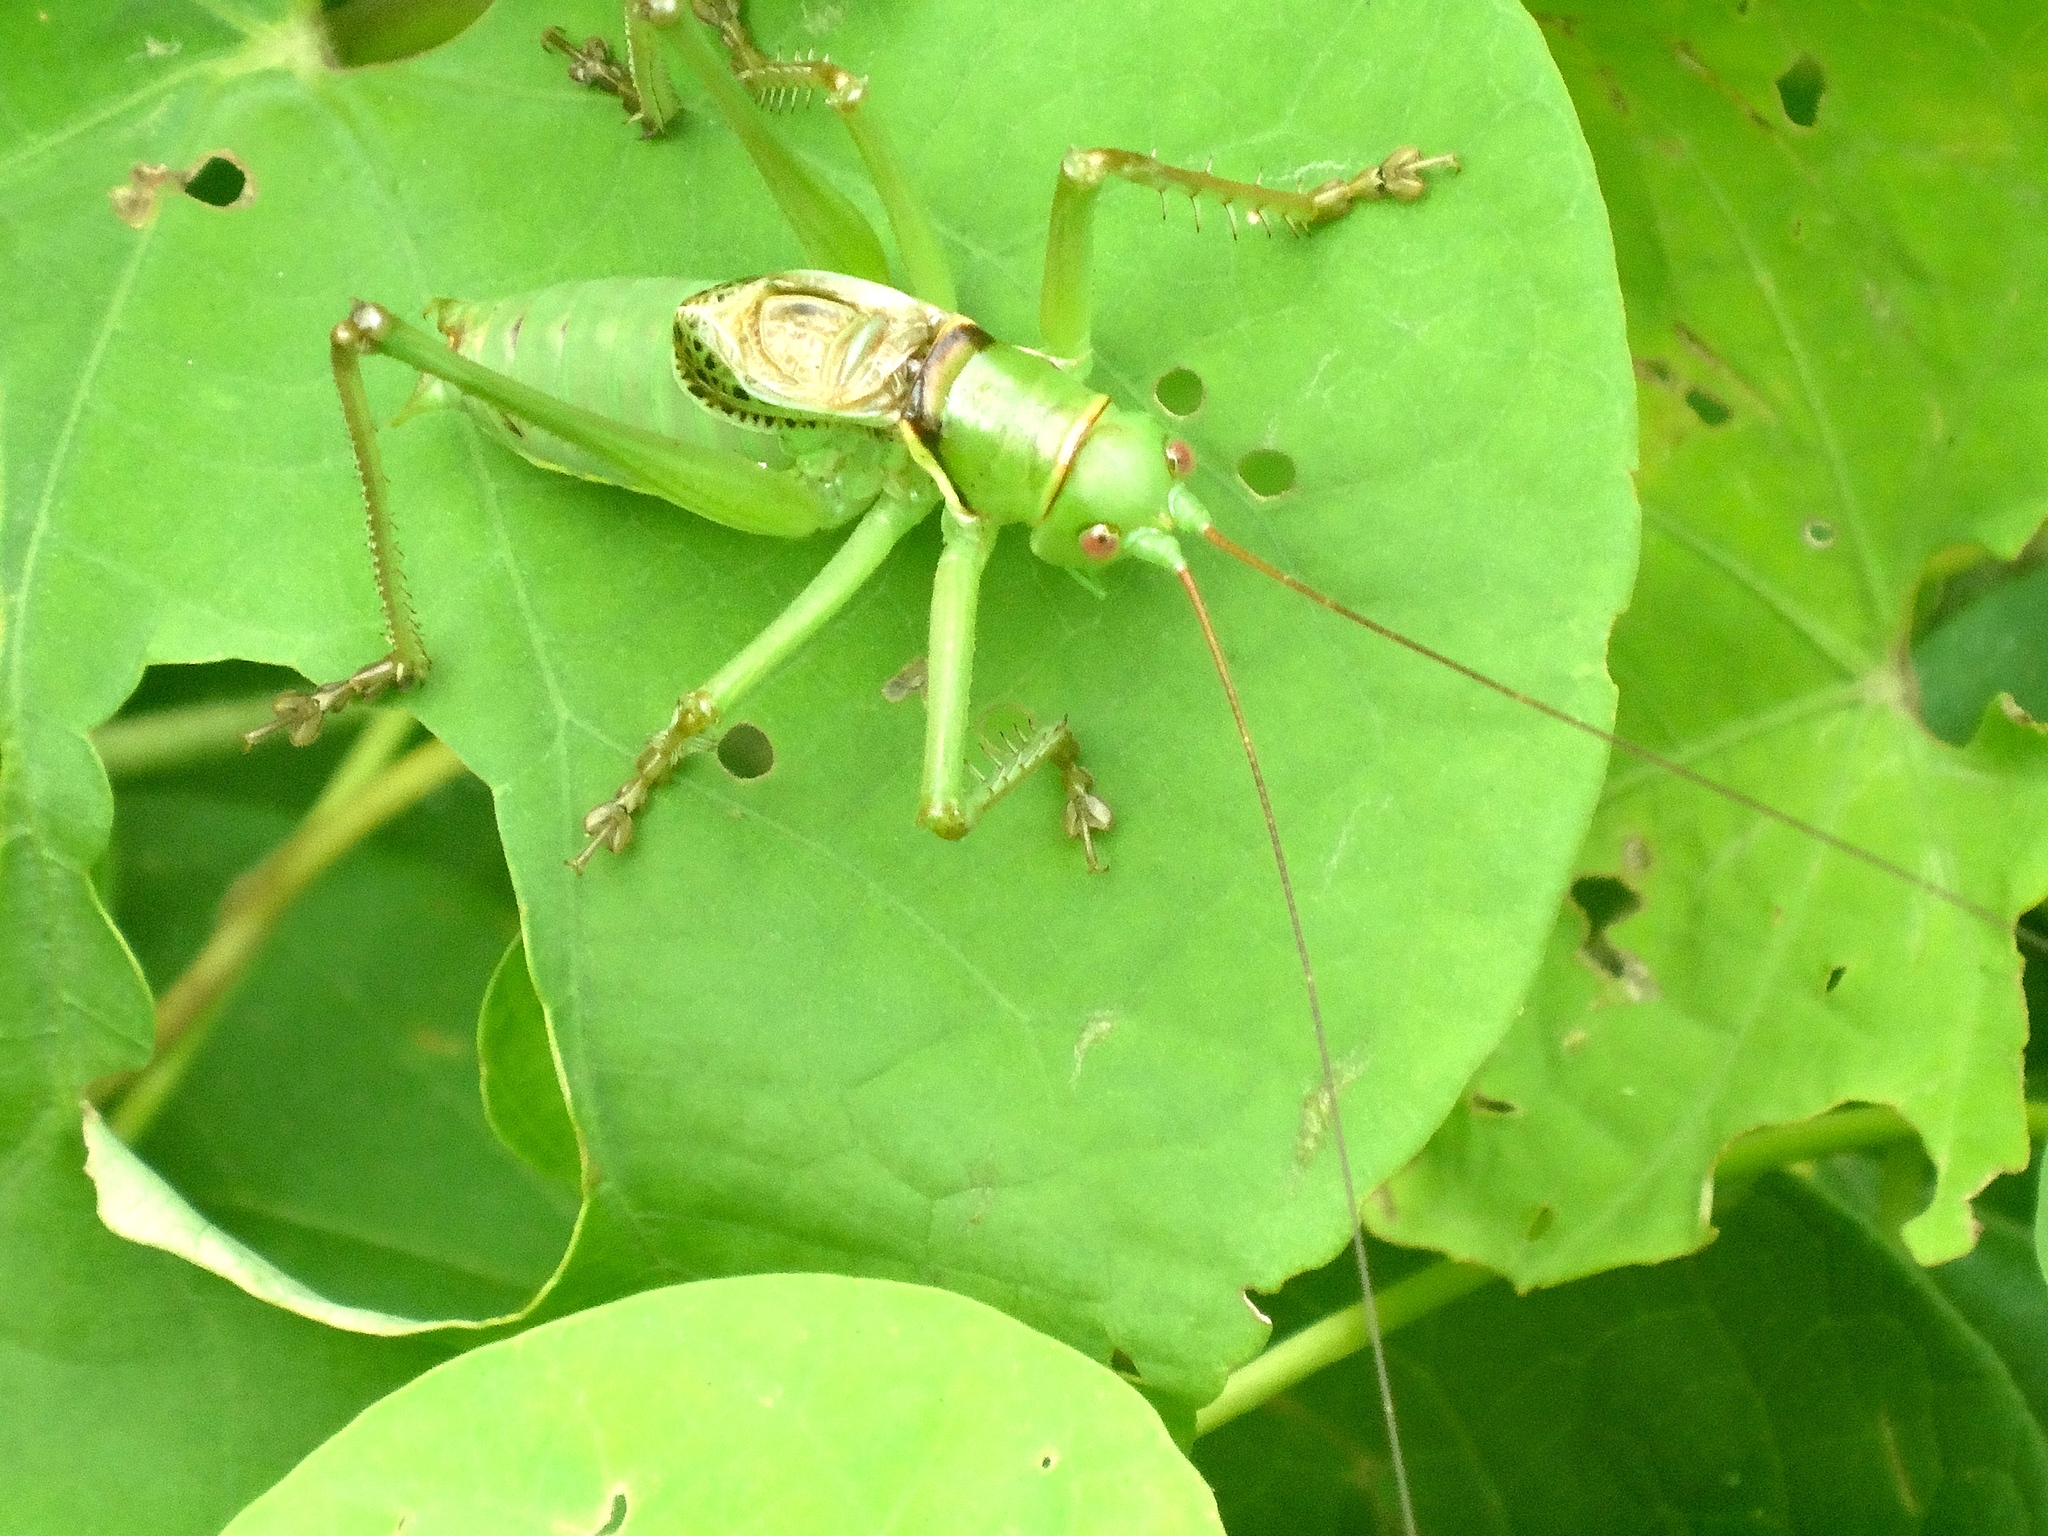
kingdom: Animalia
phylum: Arthropoda
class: Insecta
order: Orthoptera
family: Tettigoniidae
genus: Neobarrettia
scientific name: Neobarrettia sinaloae
